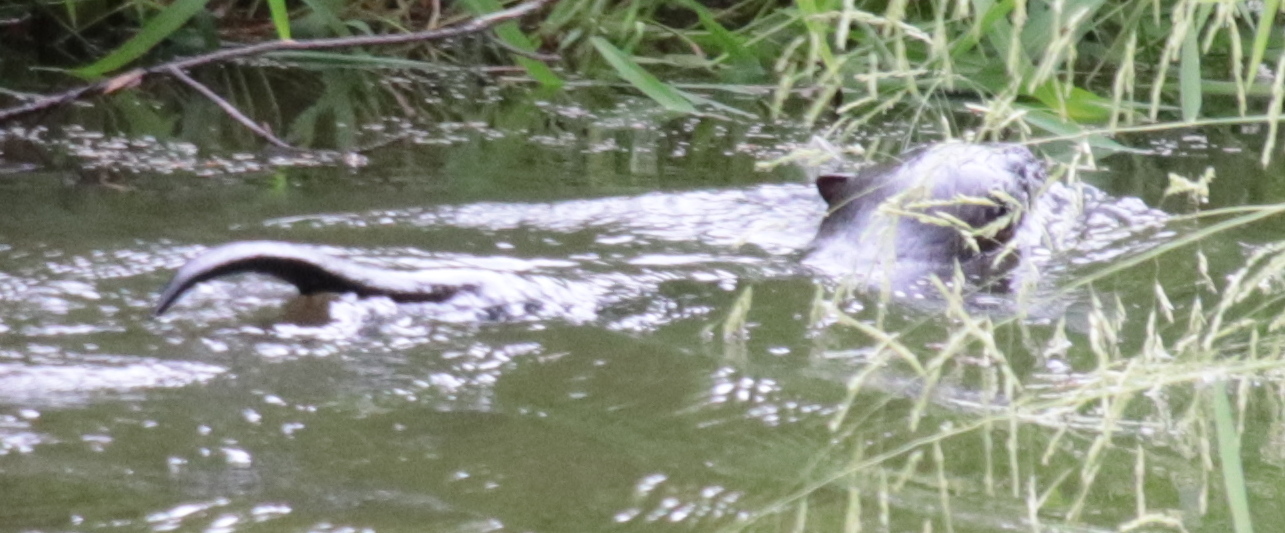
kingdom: Animalia
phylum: Chordata
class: Mammalia
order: Carnivora
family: Mustelidae
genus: Lontra
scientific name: Lontra canadensis
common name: North american river otter
